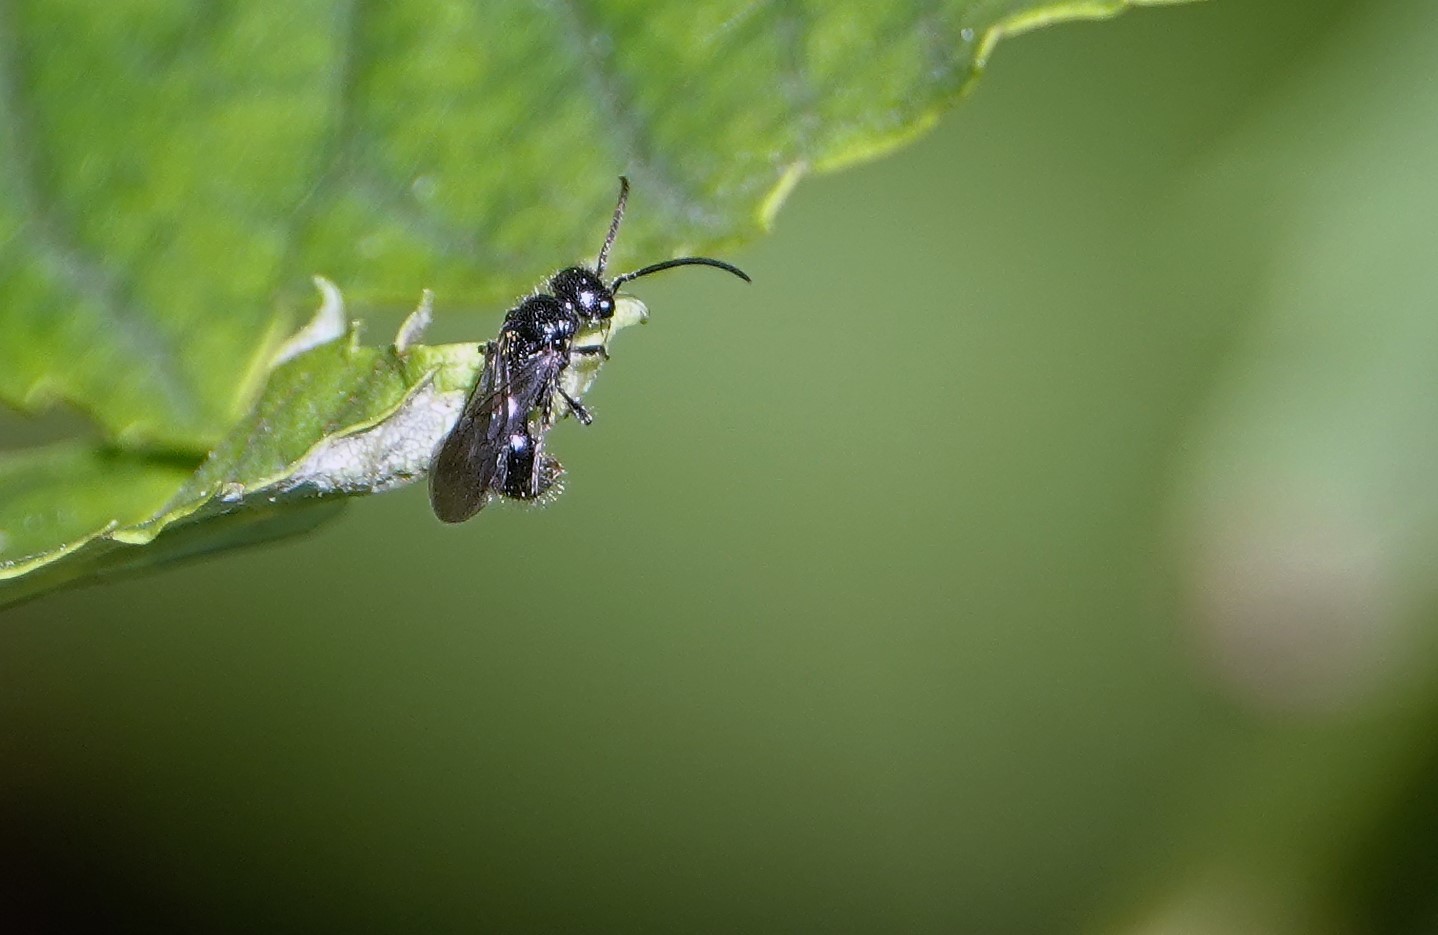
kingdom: Animalia
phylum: Arthropoda
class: Insecta
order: Hymenoptera
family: Mutillidae
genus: Pseudomethoca
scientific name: Pseudomethoca
